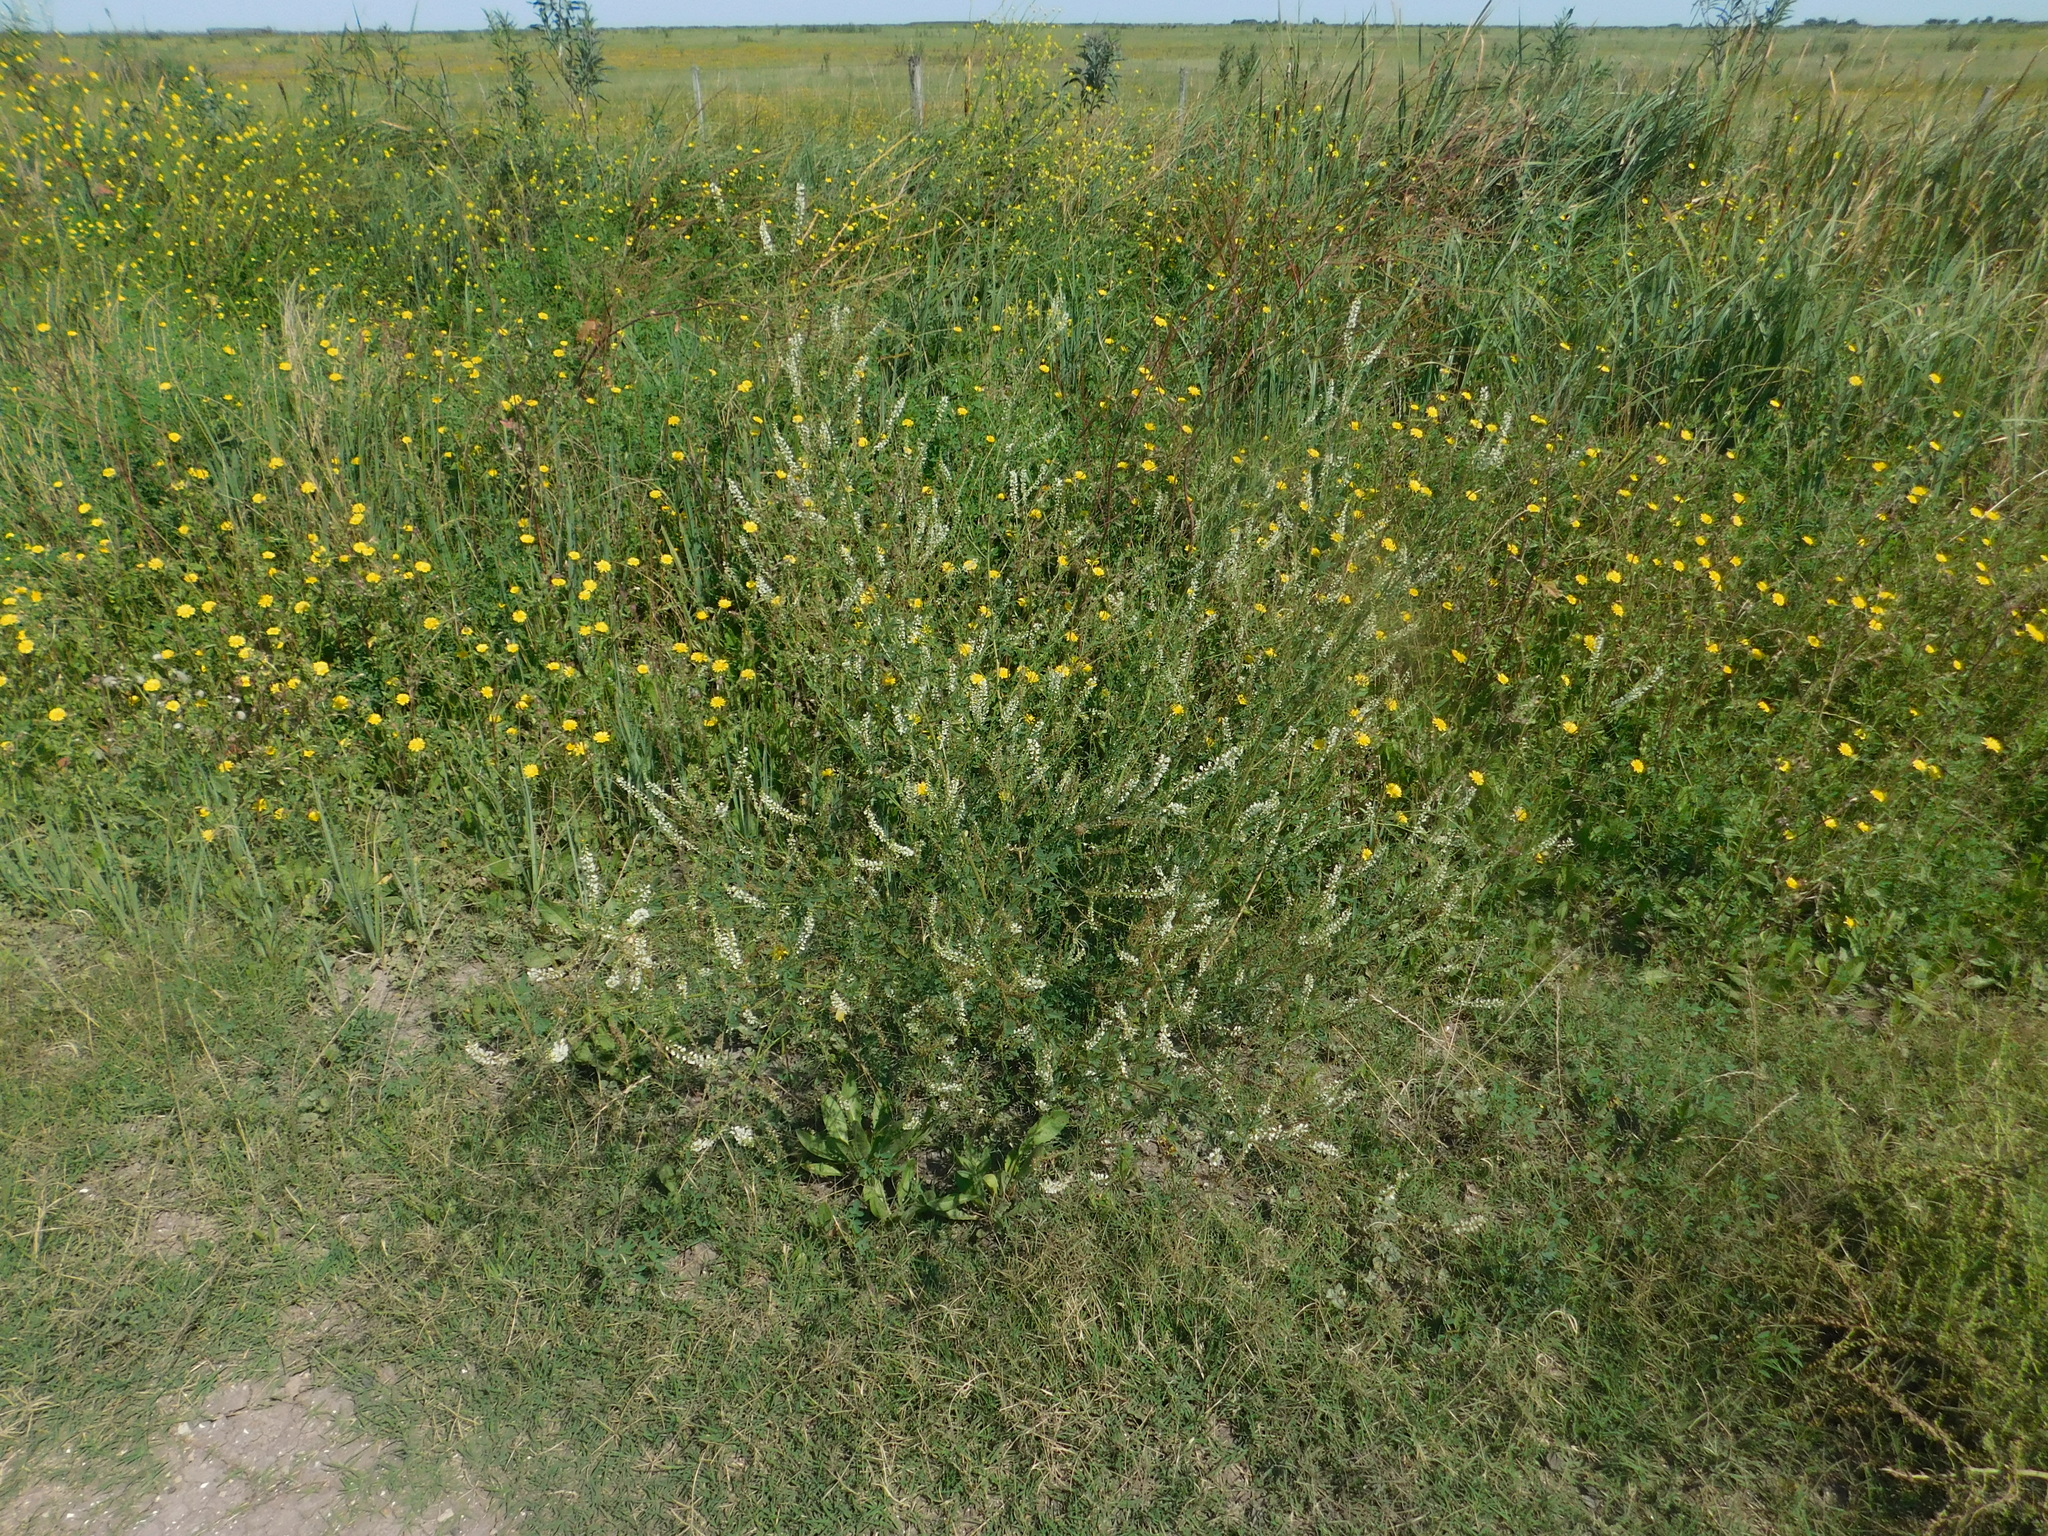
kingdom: Plantae
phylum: Tracheophyta
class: Magnoliopsida
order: Fabales
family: Fabaceae
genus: Melilotus
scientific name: Melilotus albus
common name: White melilot
